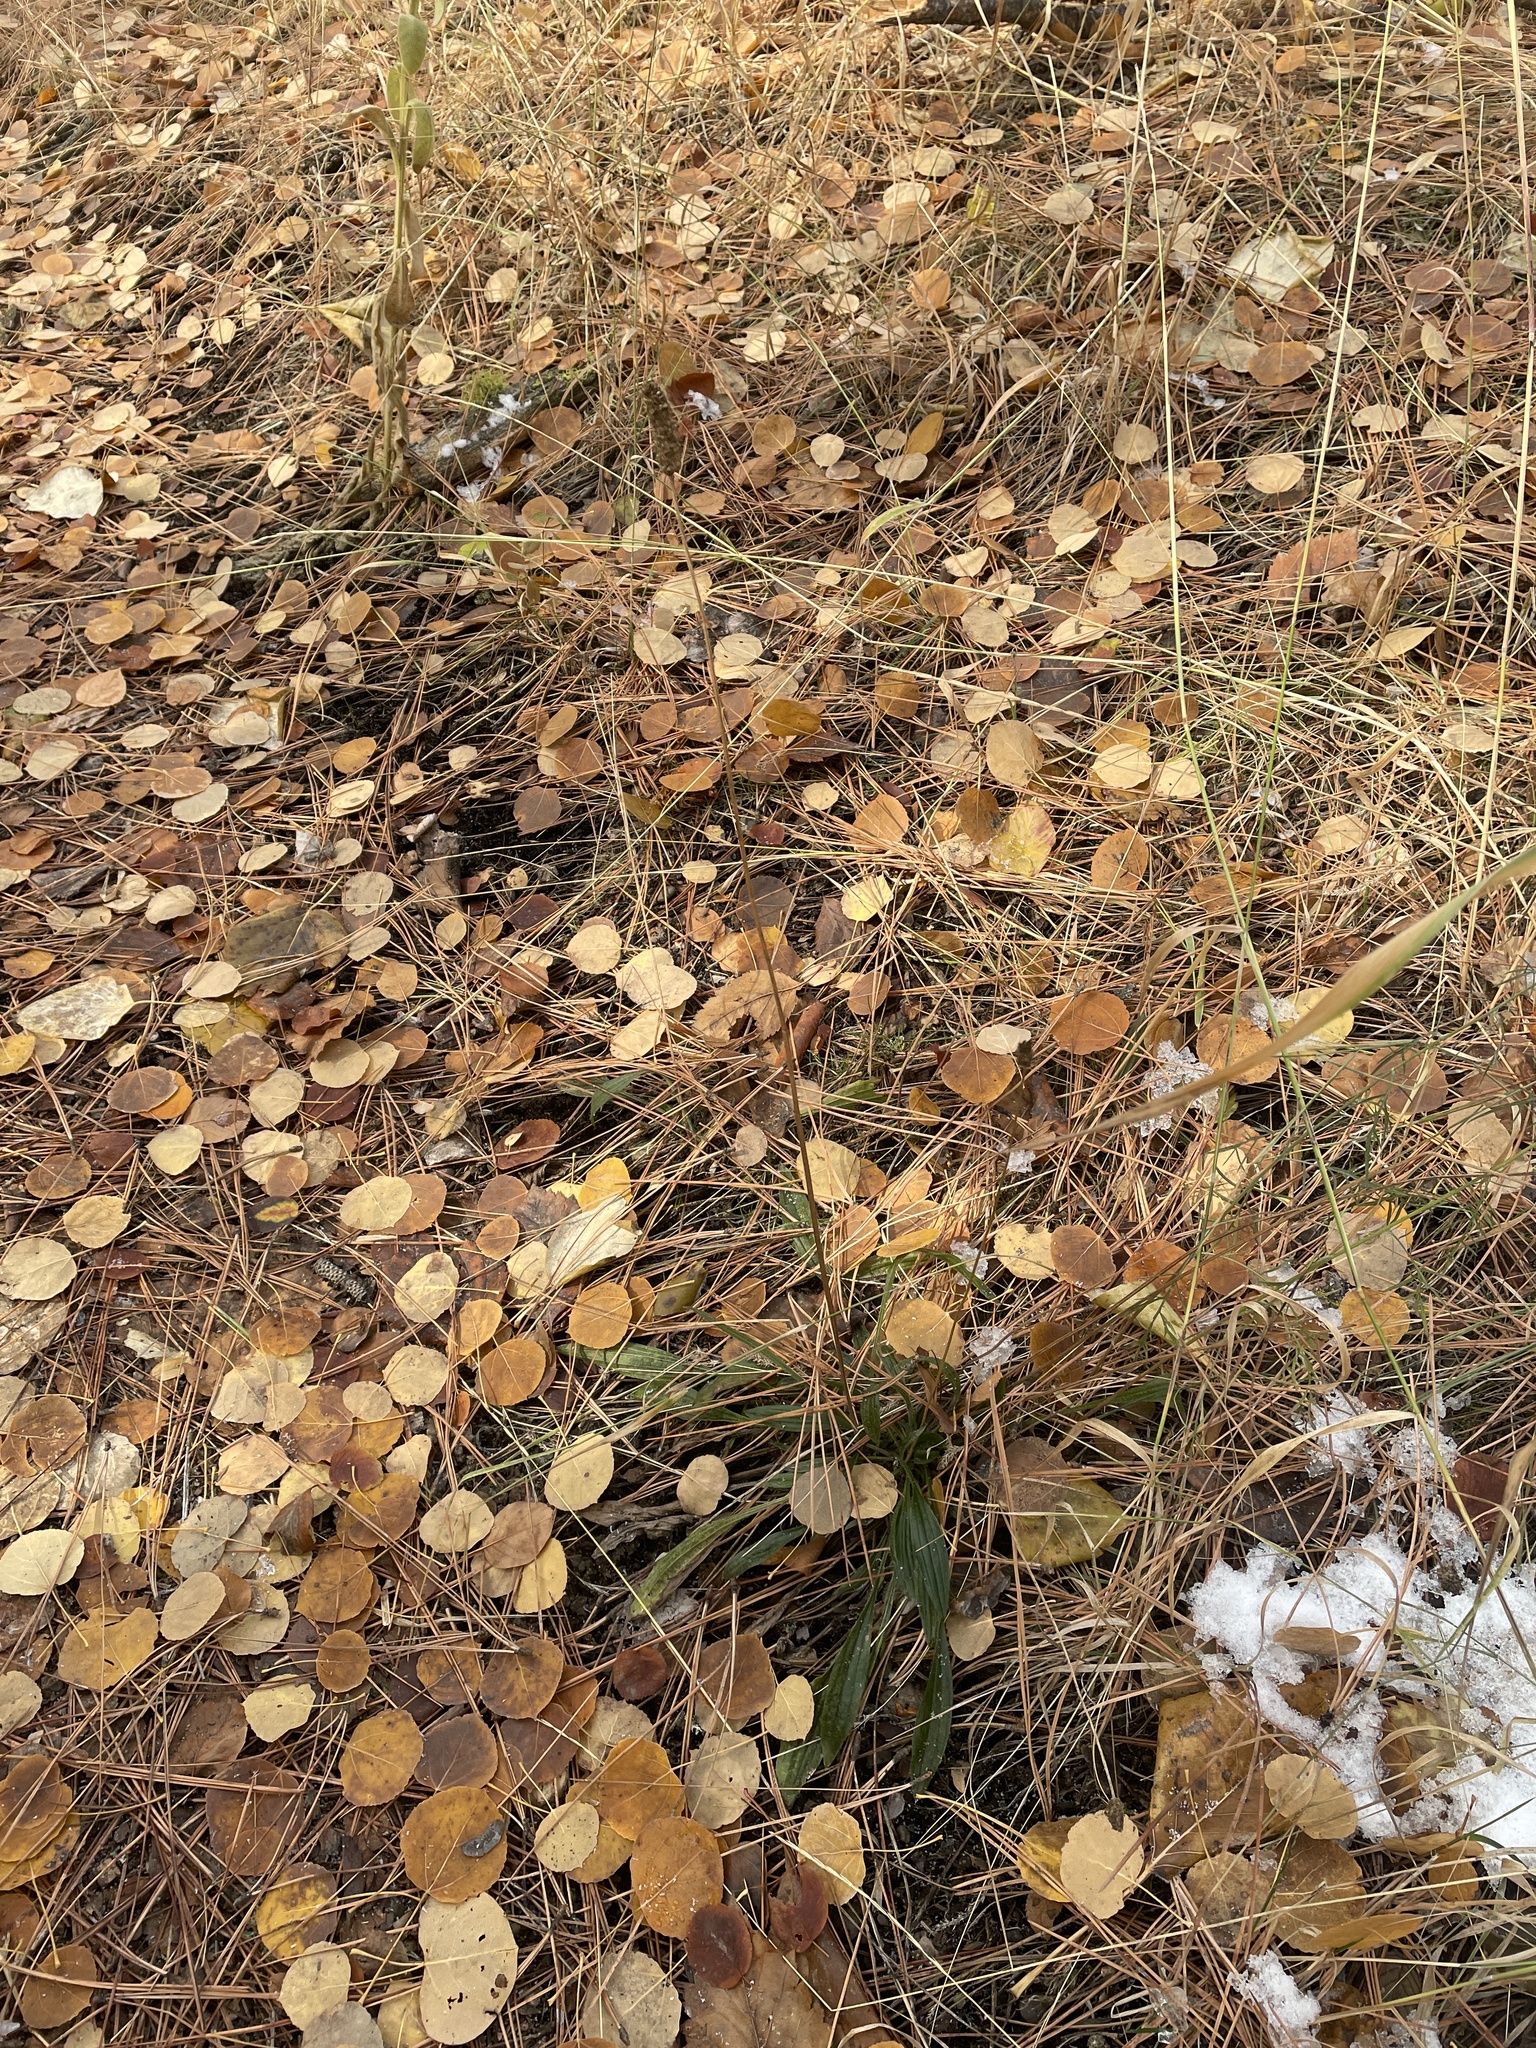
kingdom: Plantae
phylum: Tracheophyta
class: Magnoliopsida
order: Lamiales
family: Plantaginaceae
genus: Plantago
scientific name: Plantago lanceolata
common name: Ribwort plantain
